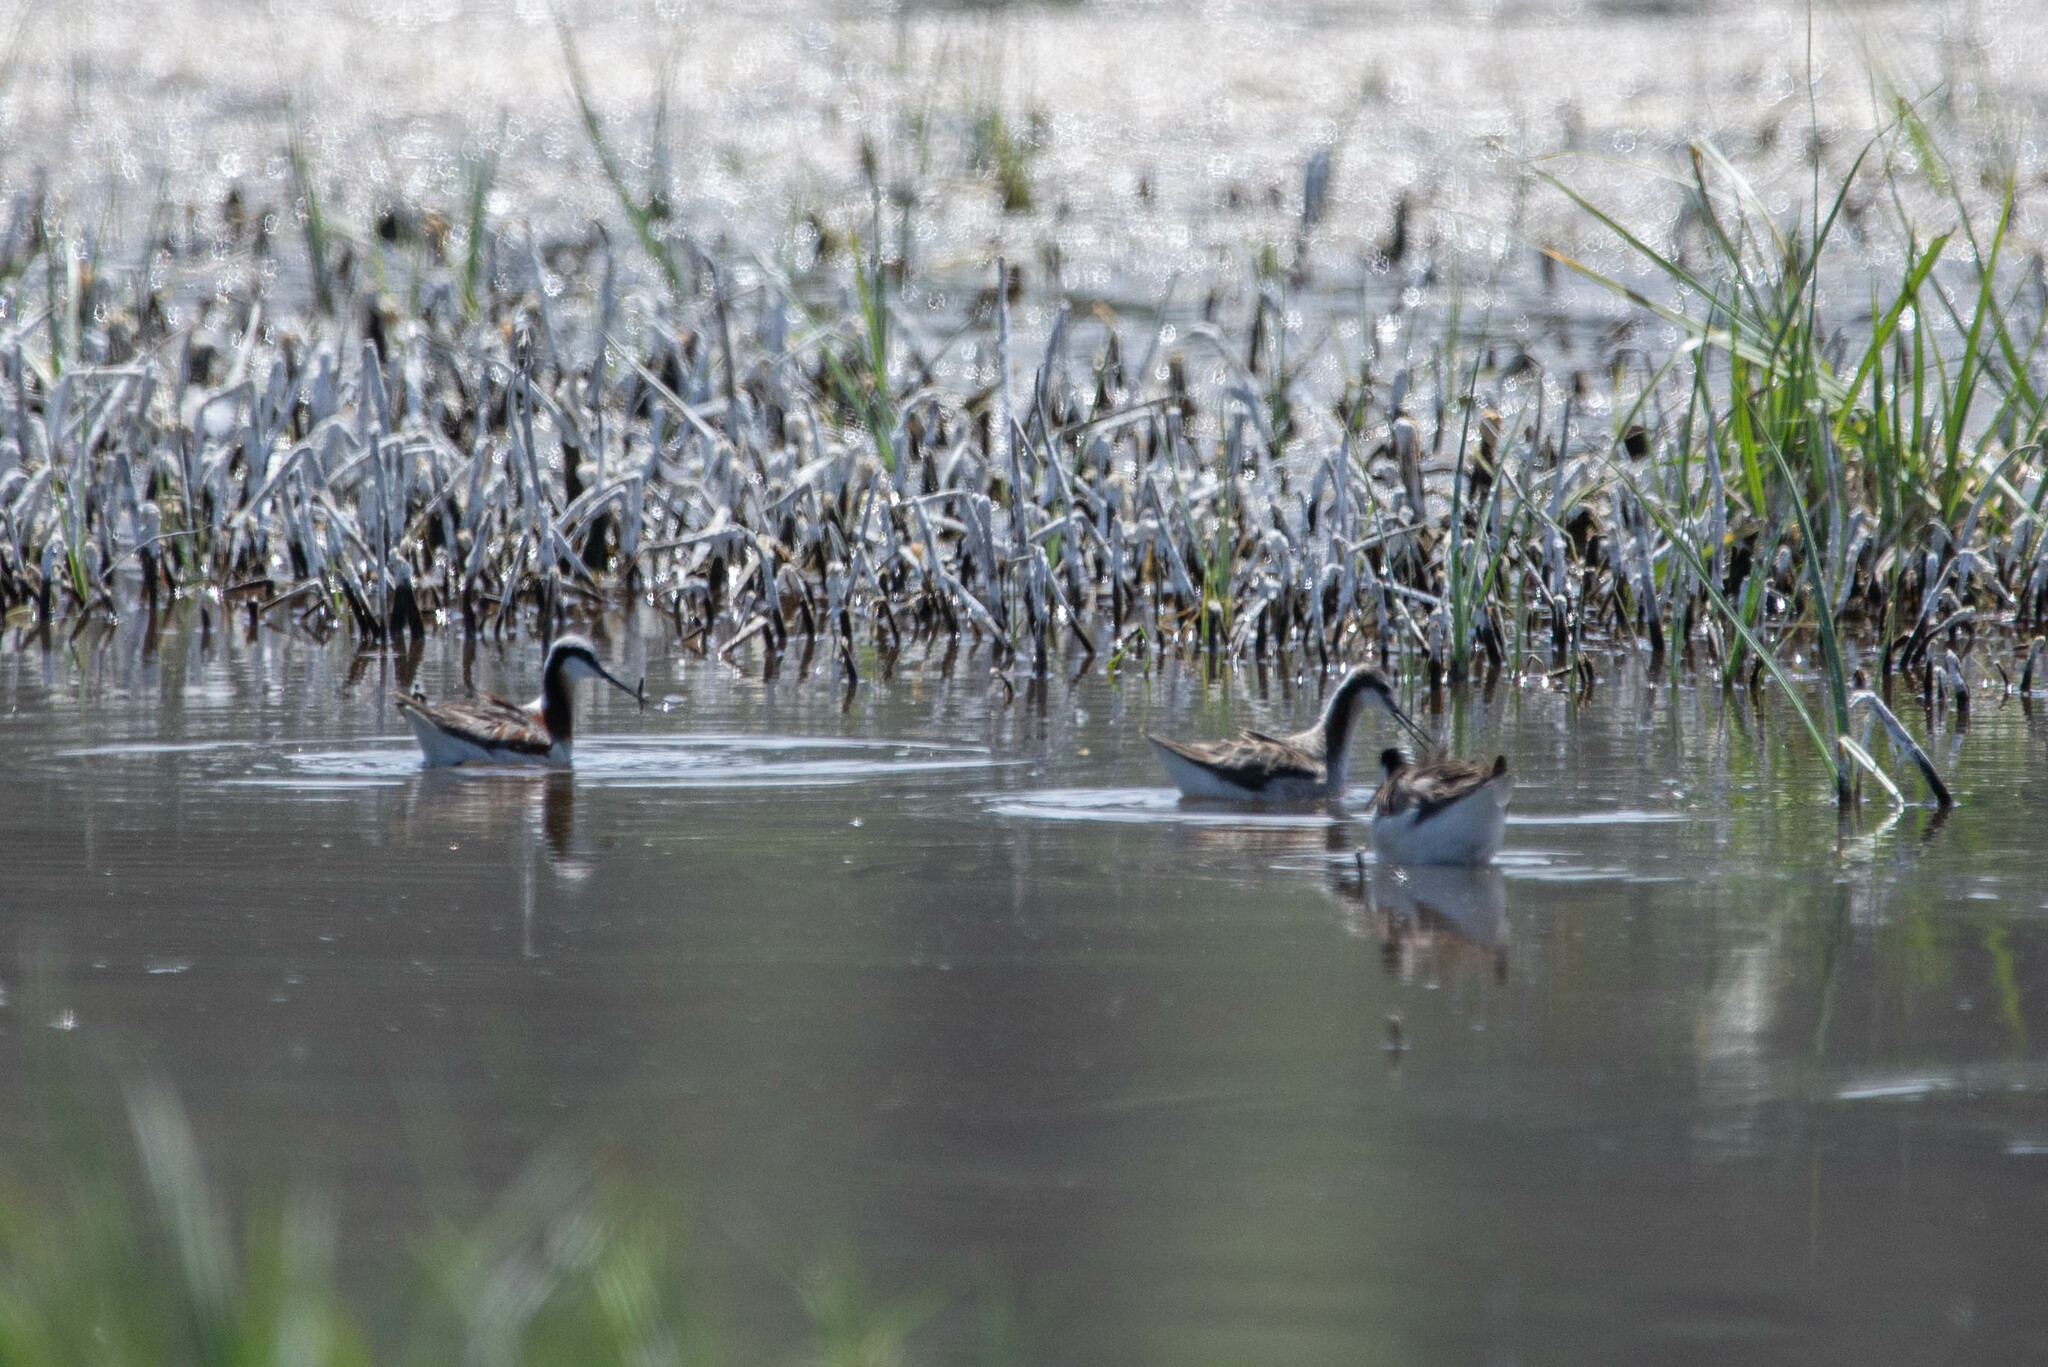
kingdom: Animalia
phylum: Chordata
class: Aves
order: Charadriiformes
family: Scolopacidae
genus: Phalaropus
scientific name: Phalaropus tricolor
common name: Wilson's phalarope
